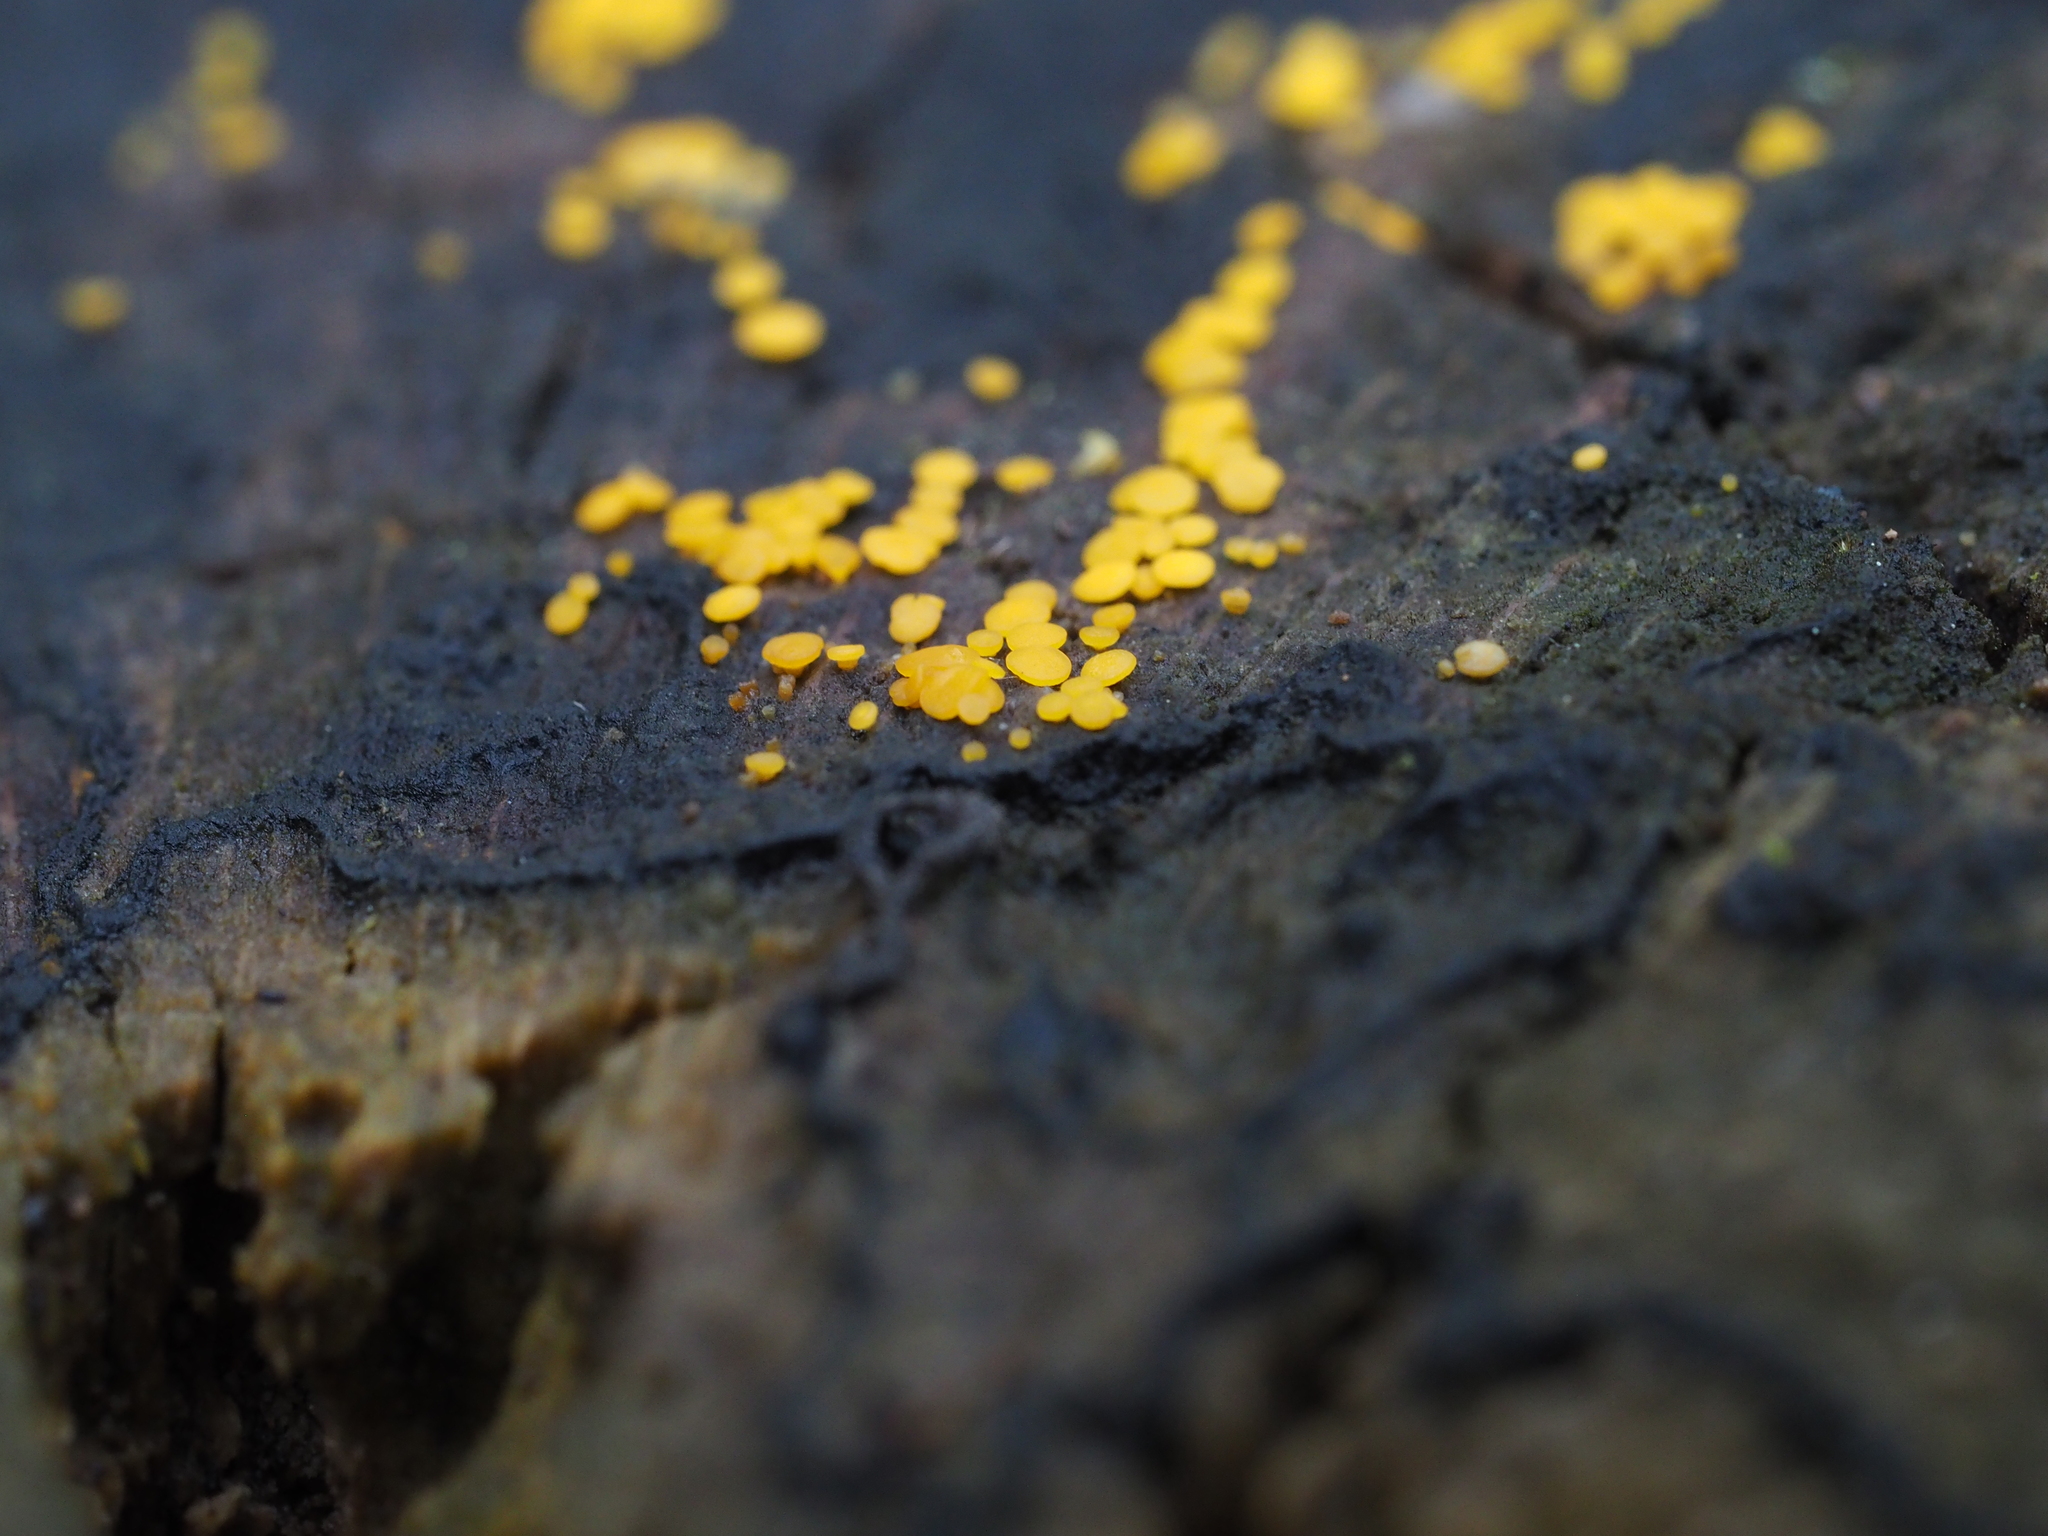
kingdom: Fungi
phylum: Ascomycota
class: Leotiomycetes
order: Helotiales
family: Pezizellaceae
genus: Calycina
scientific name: Calycina citrina
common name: Yellow fairy cups
